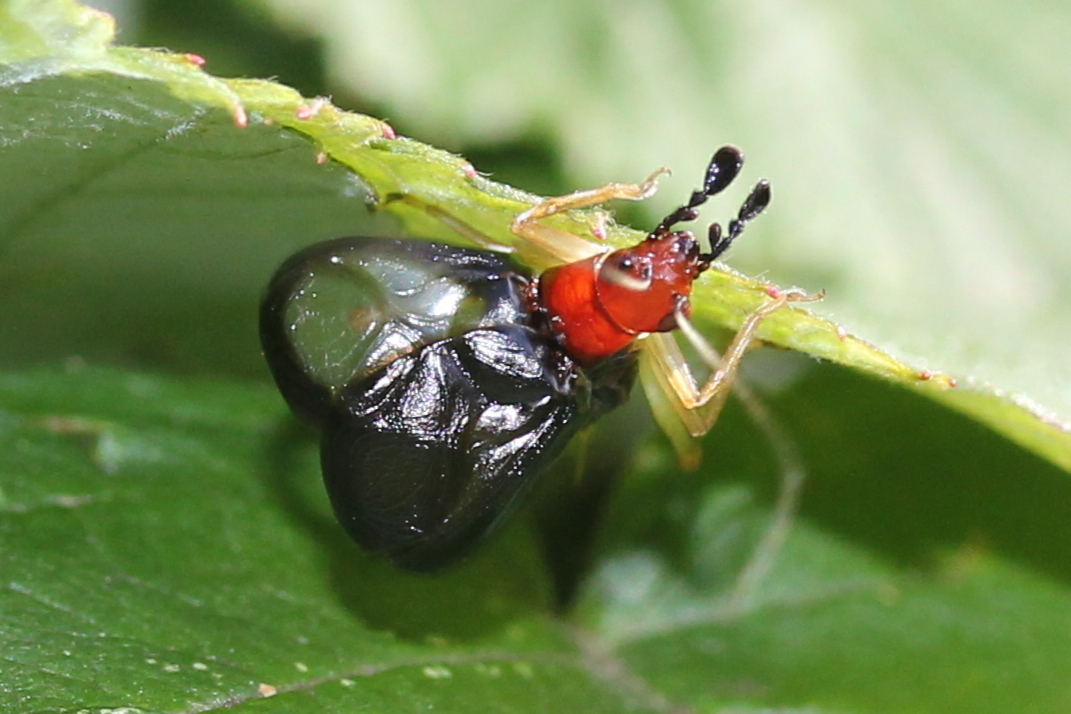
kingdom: Animalia
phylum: Arthropoda
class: Insecta
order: Orthoptera
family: Trigonidiidae
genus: Phyllopalpus
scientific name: Phyllopalpus pulchellus
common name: Handsome trig
